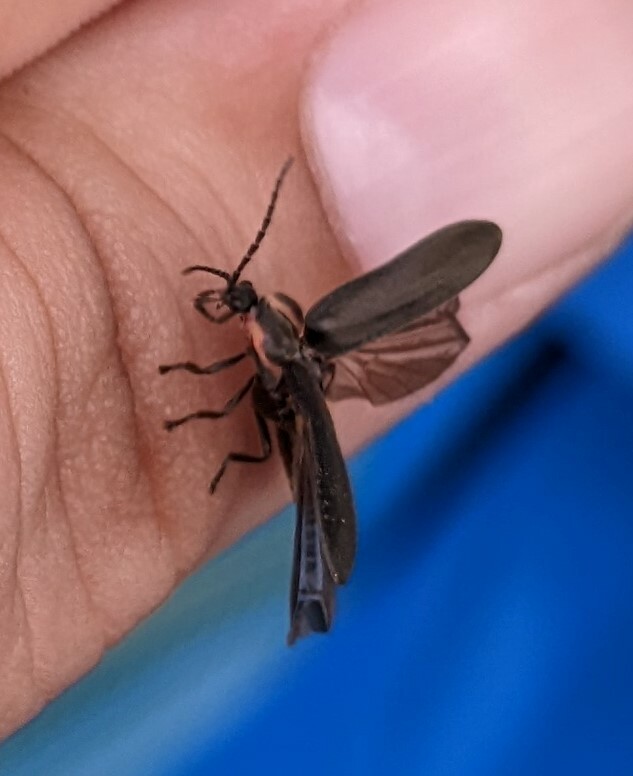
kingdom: Animalia
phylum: Arthropoda
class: Insecta
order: Coleoptera
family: Lampyridae
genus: Photinus
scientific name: Photinus corrusca
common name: Winter firefly
